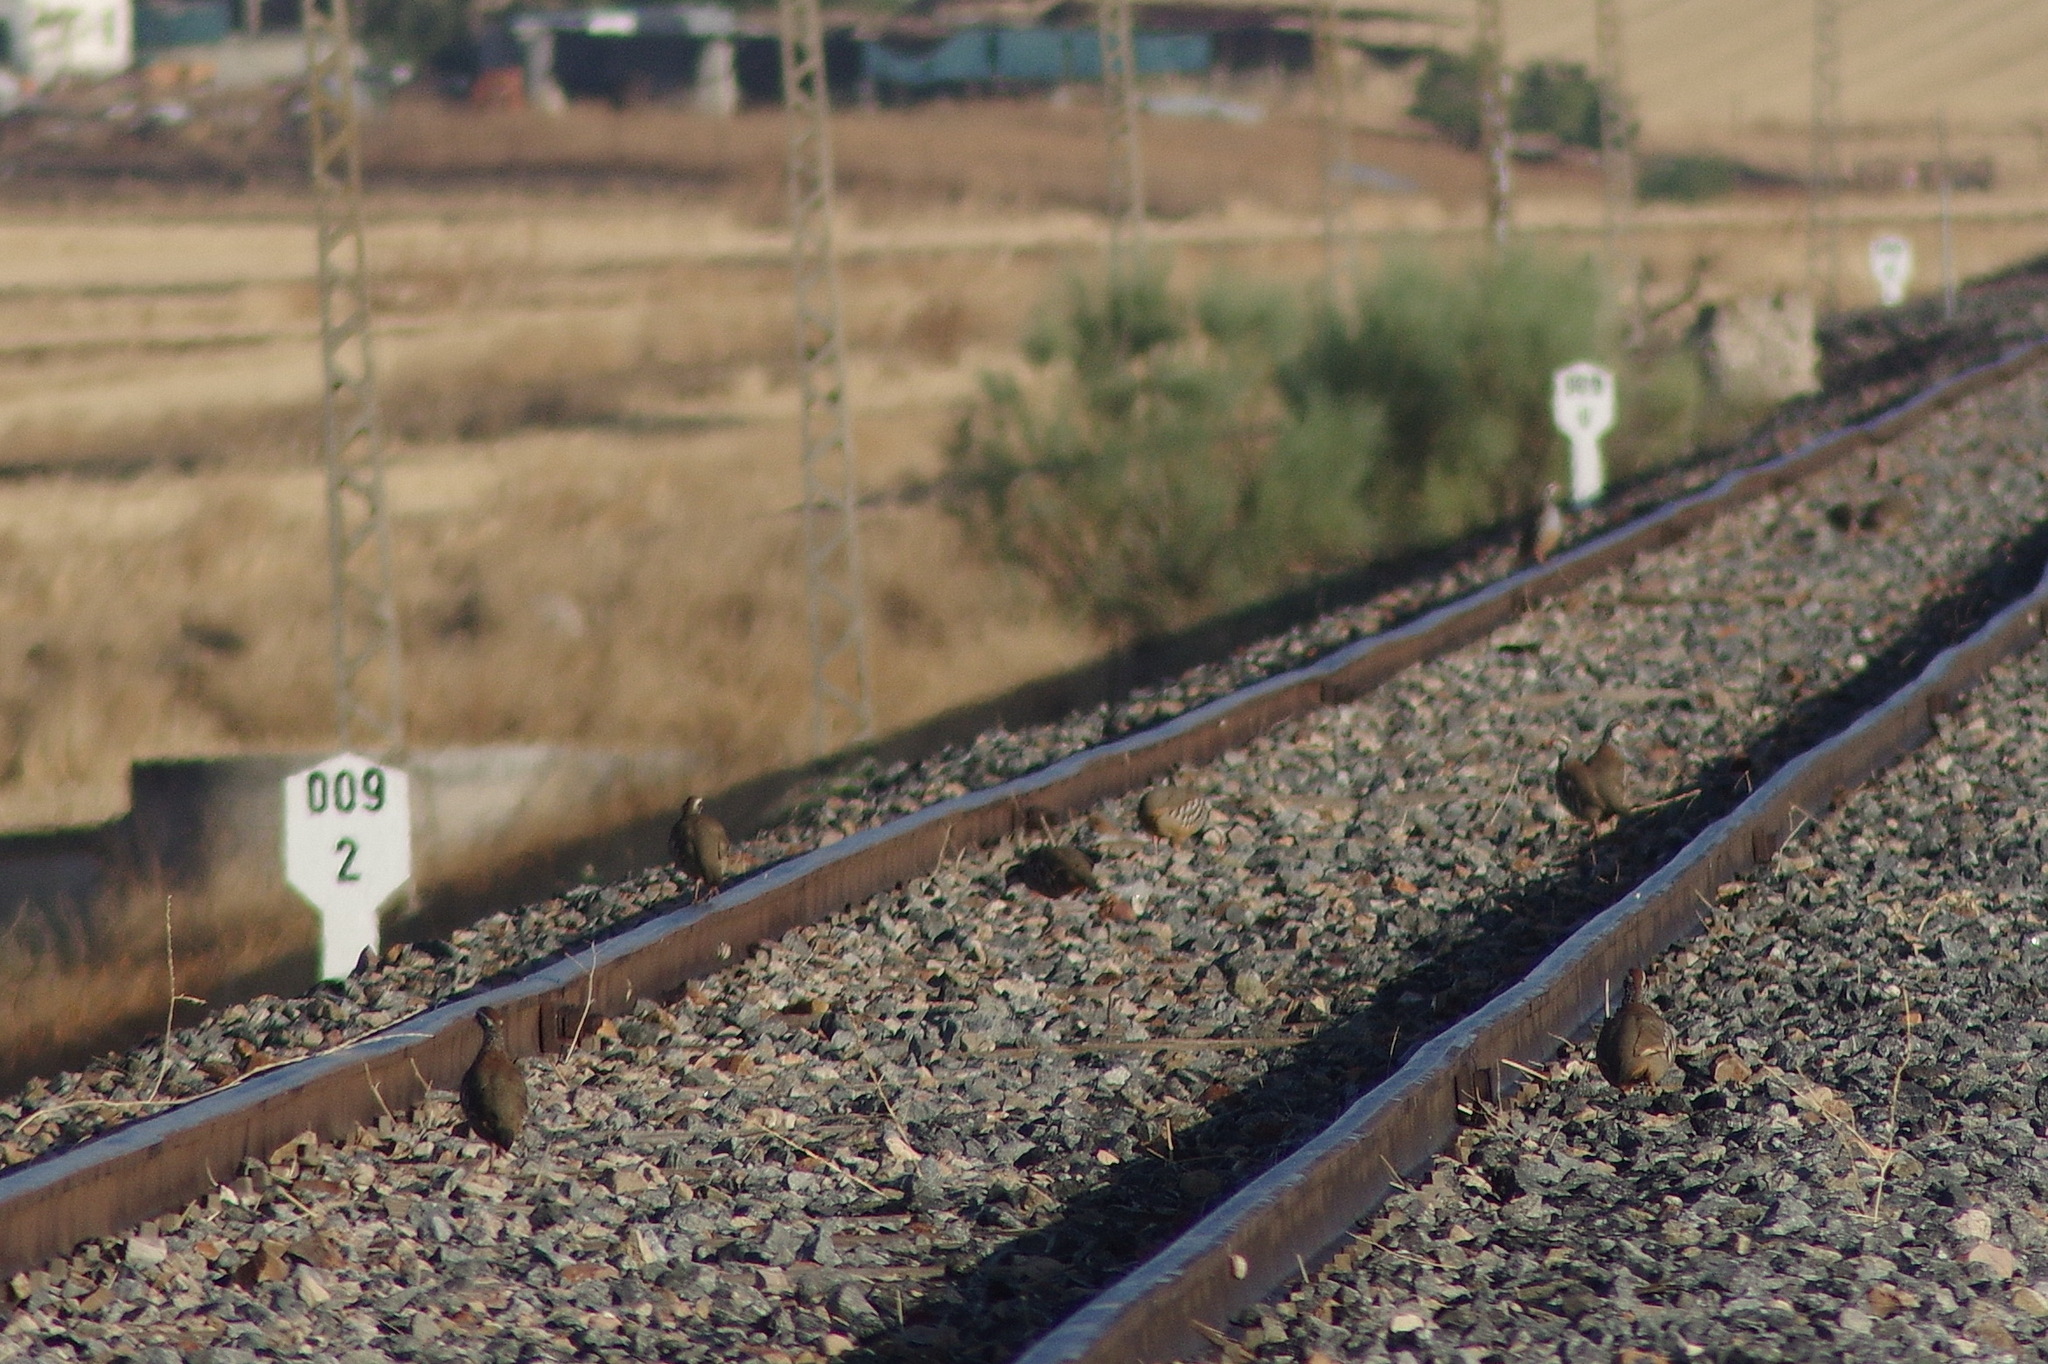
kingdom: Animalia
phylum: Chordata
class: Aves
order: Galliformes
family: Phasianidae
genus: Alectoris
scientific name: Alectoris rufa
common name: Red-legged partridge
